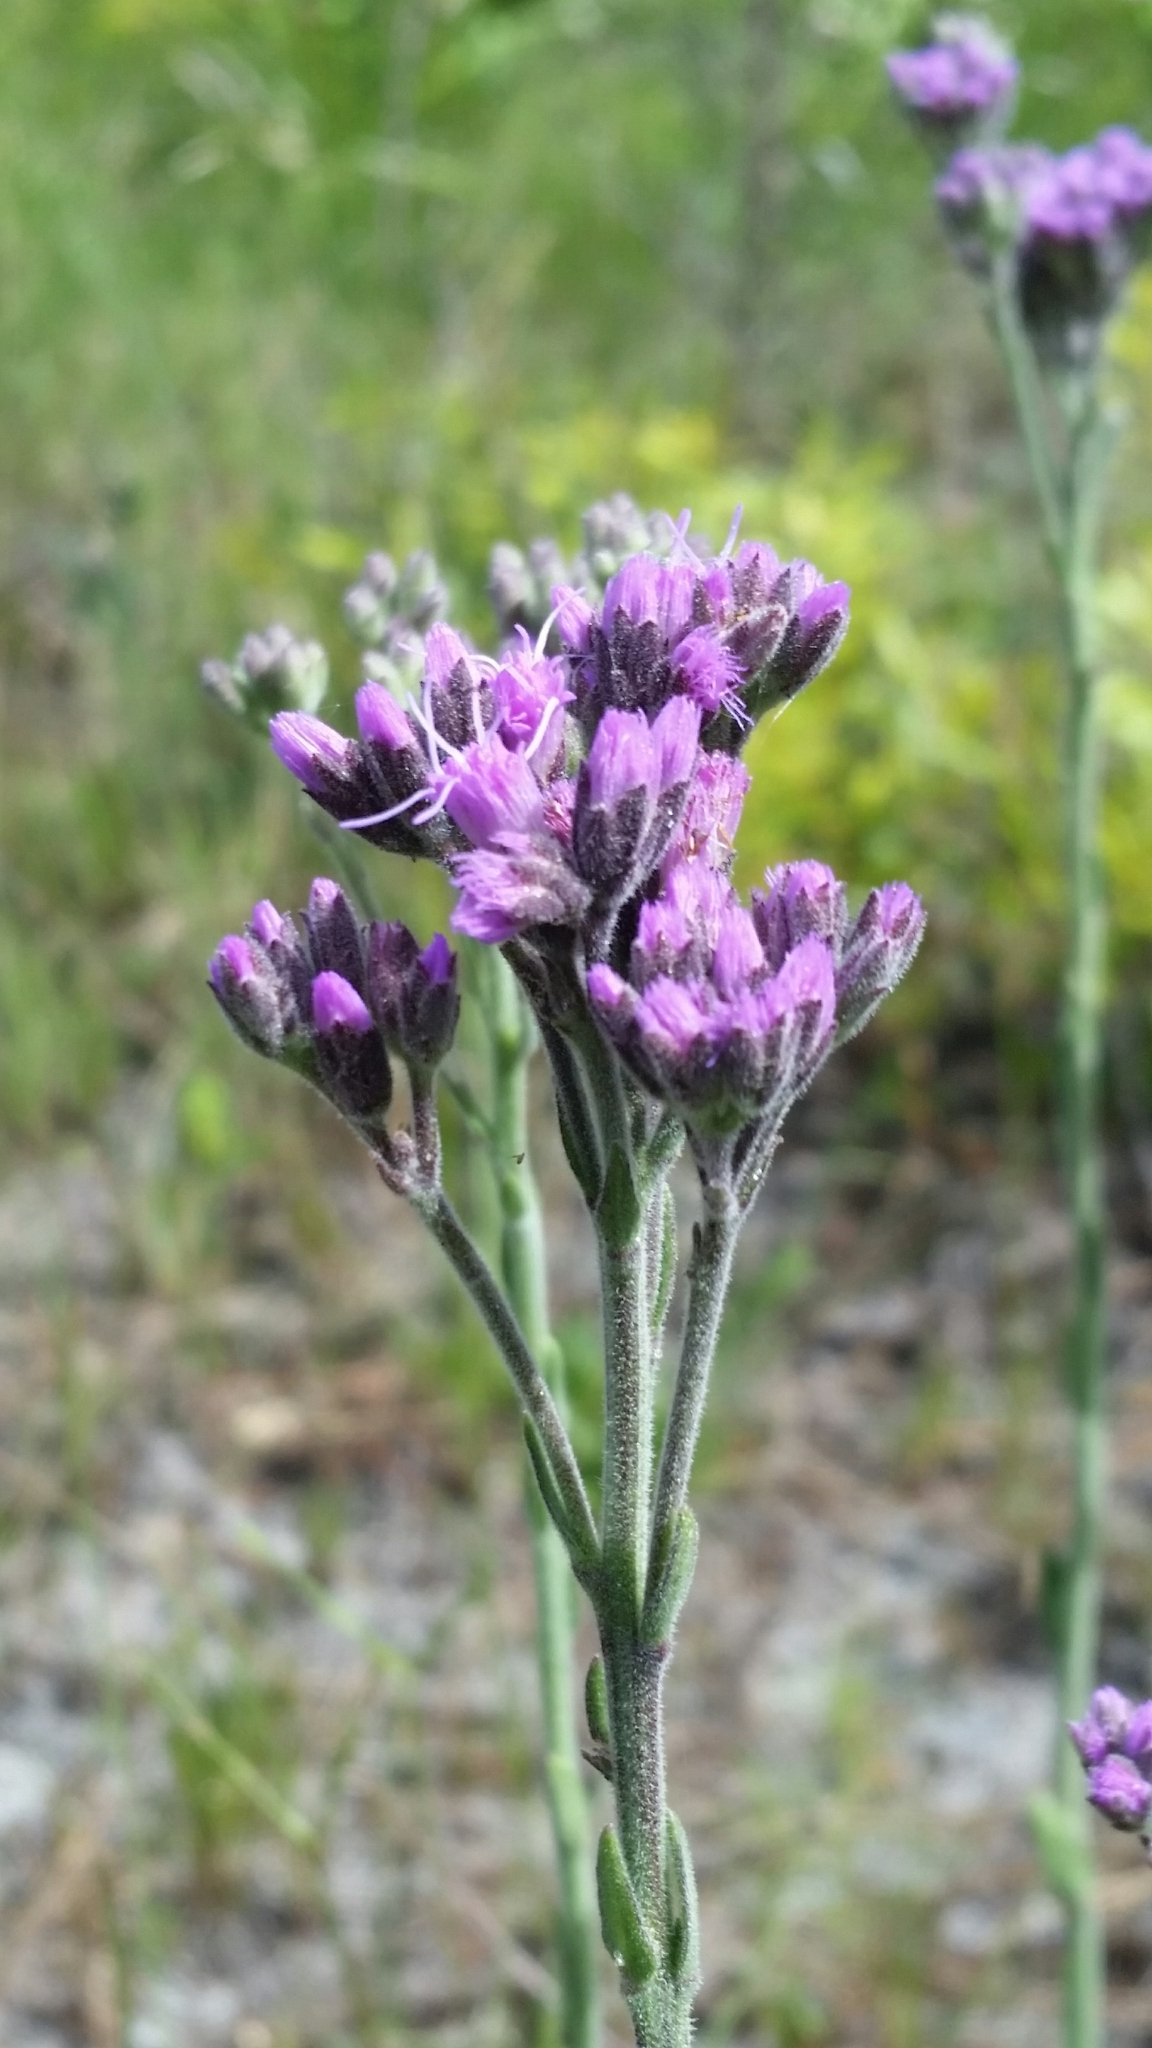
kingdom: Plantae
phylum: Tracheophyta
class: Magnoliopsida
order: Asterales
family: Asteraceae
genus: Carphephorus
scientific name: Carphephorus carnosus
